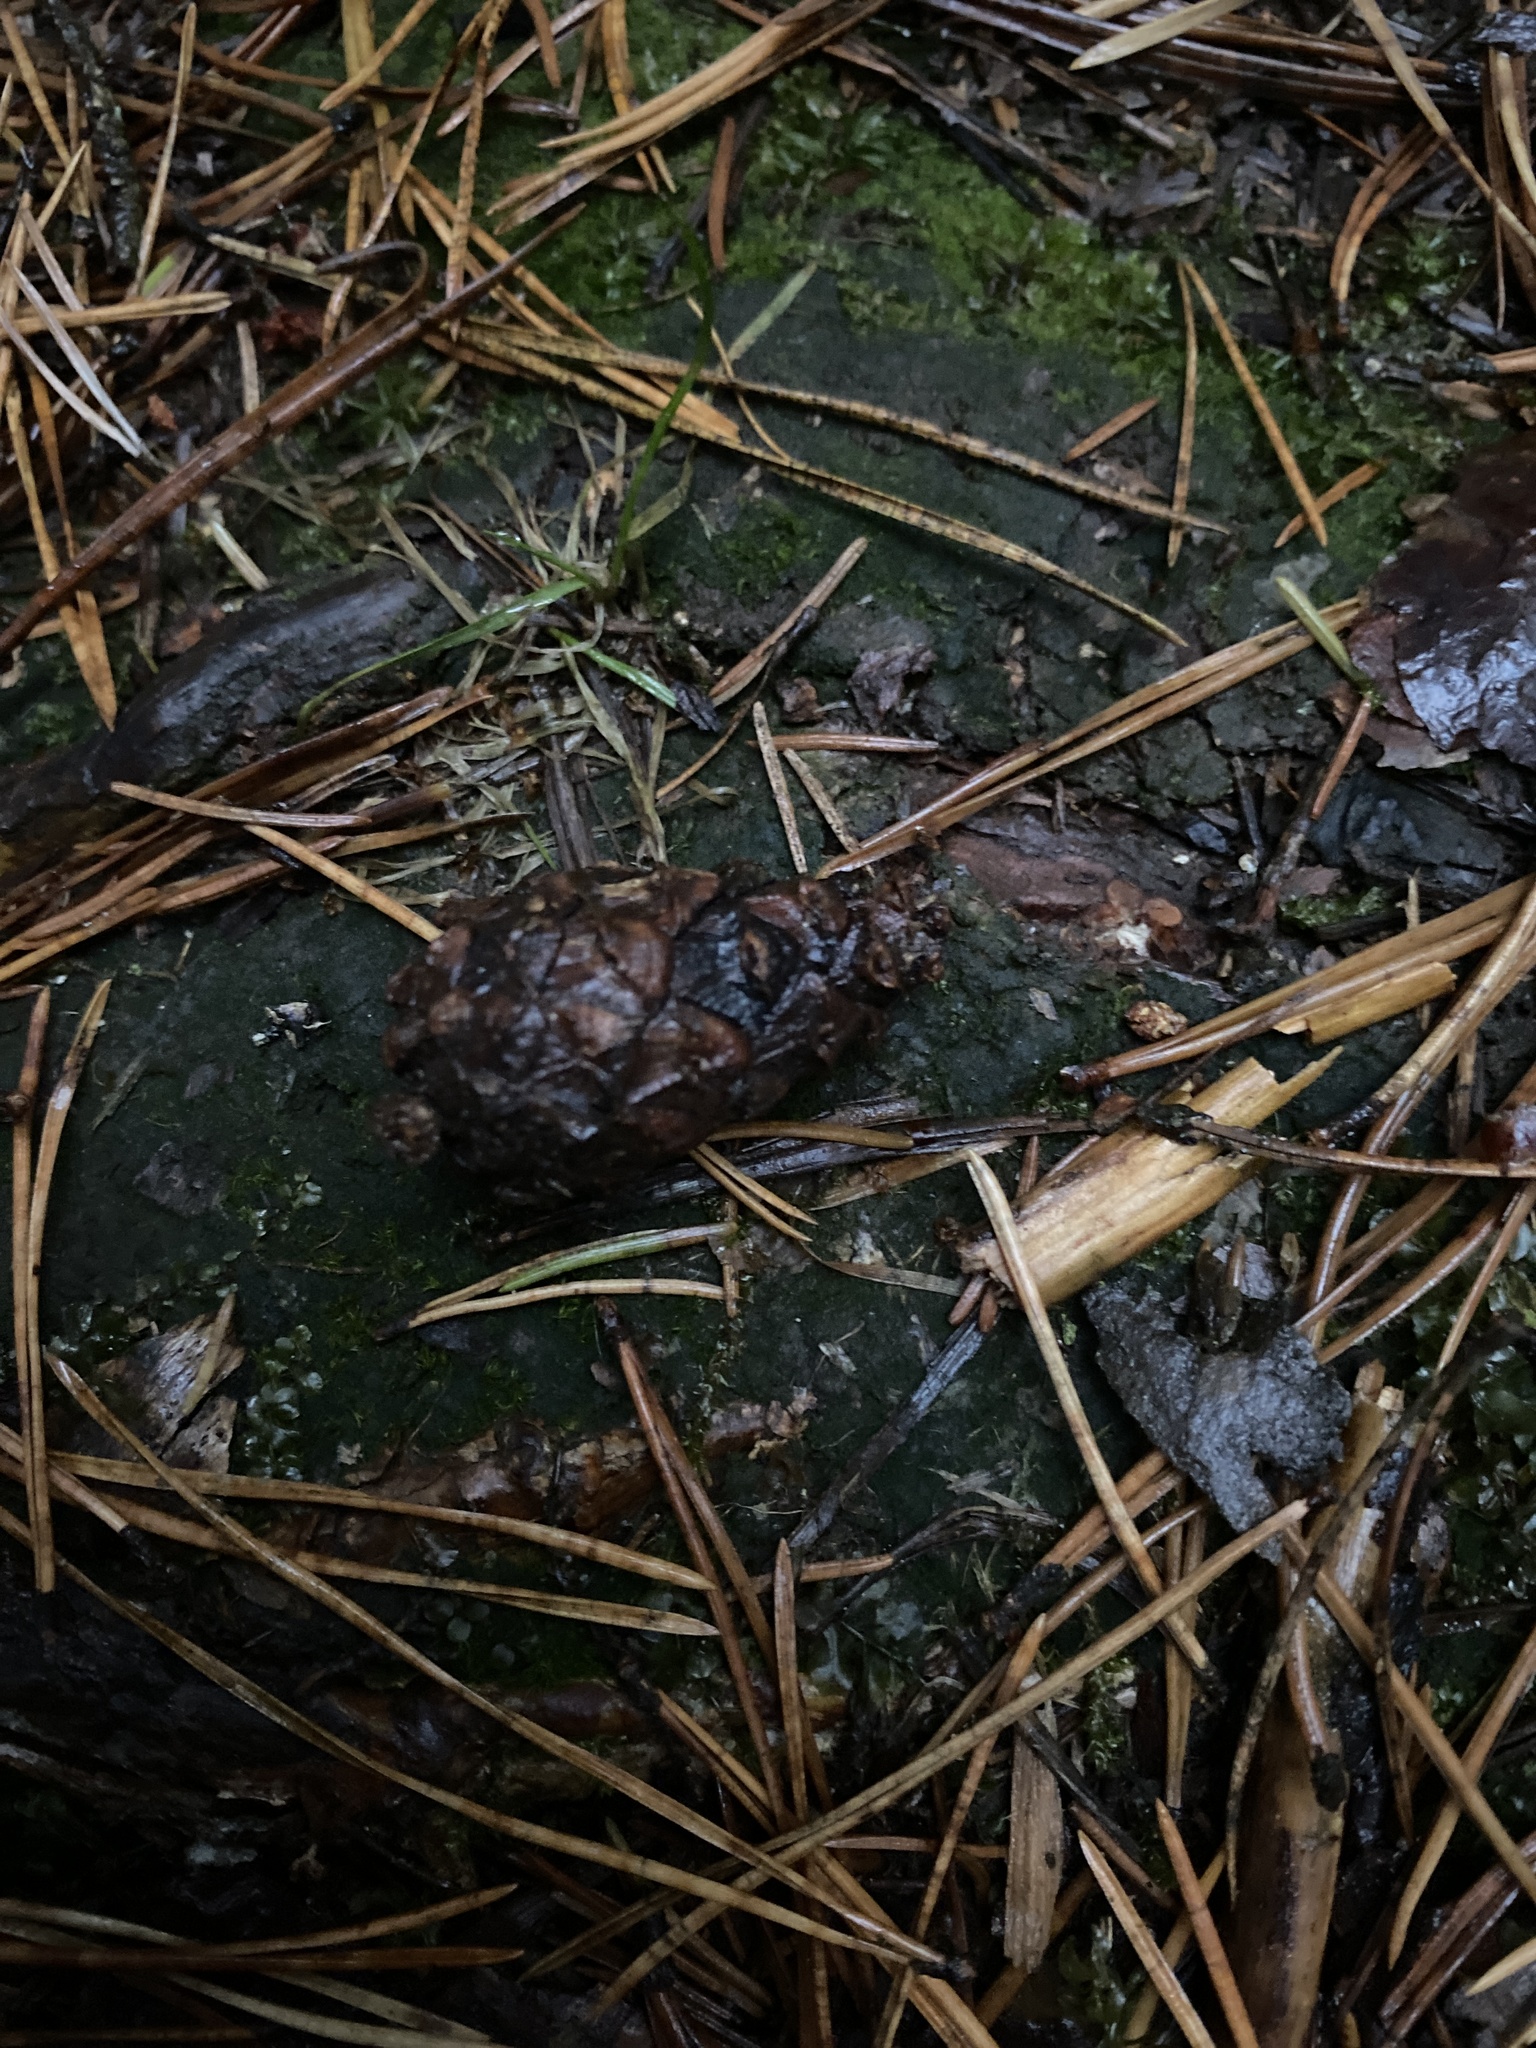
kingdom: Plantae
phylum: Tracheophyta
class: Pinopsida
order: Pinales
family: Pinaceae
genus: Pinus
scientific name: Pinus sylvestris
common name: Scots pine
